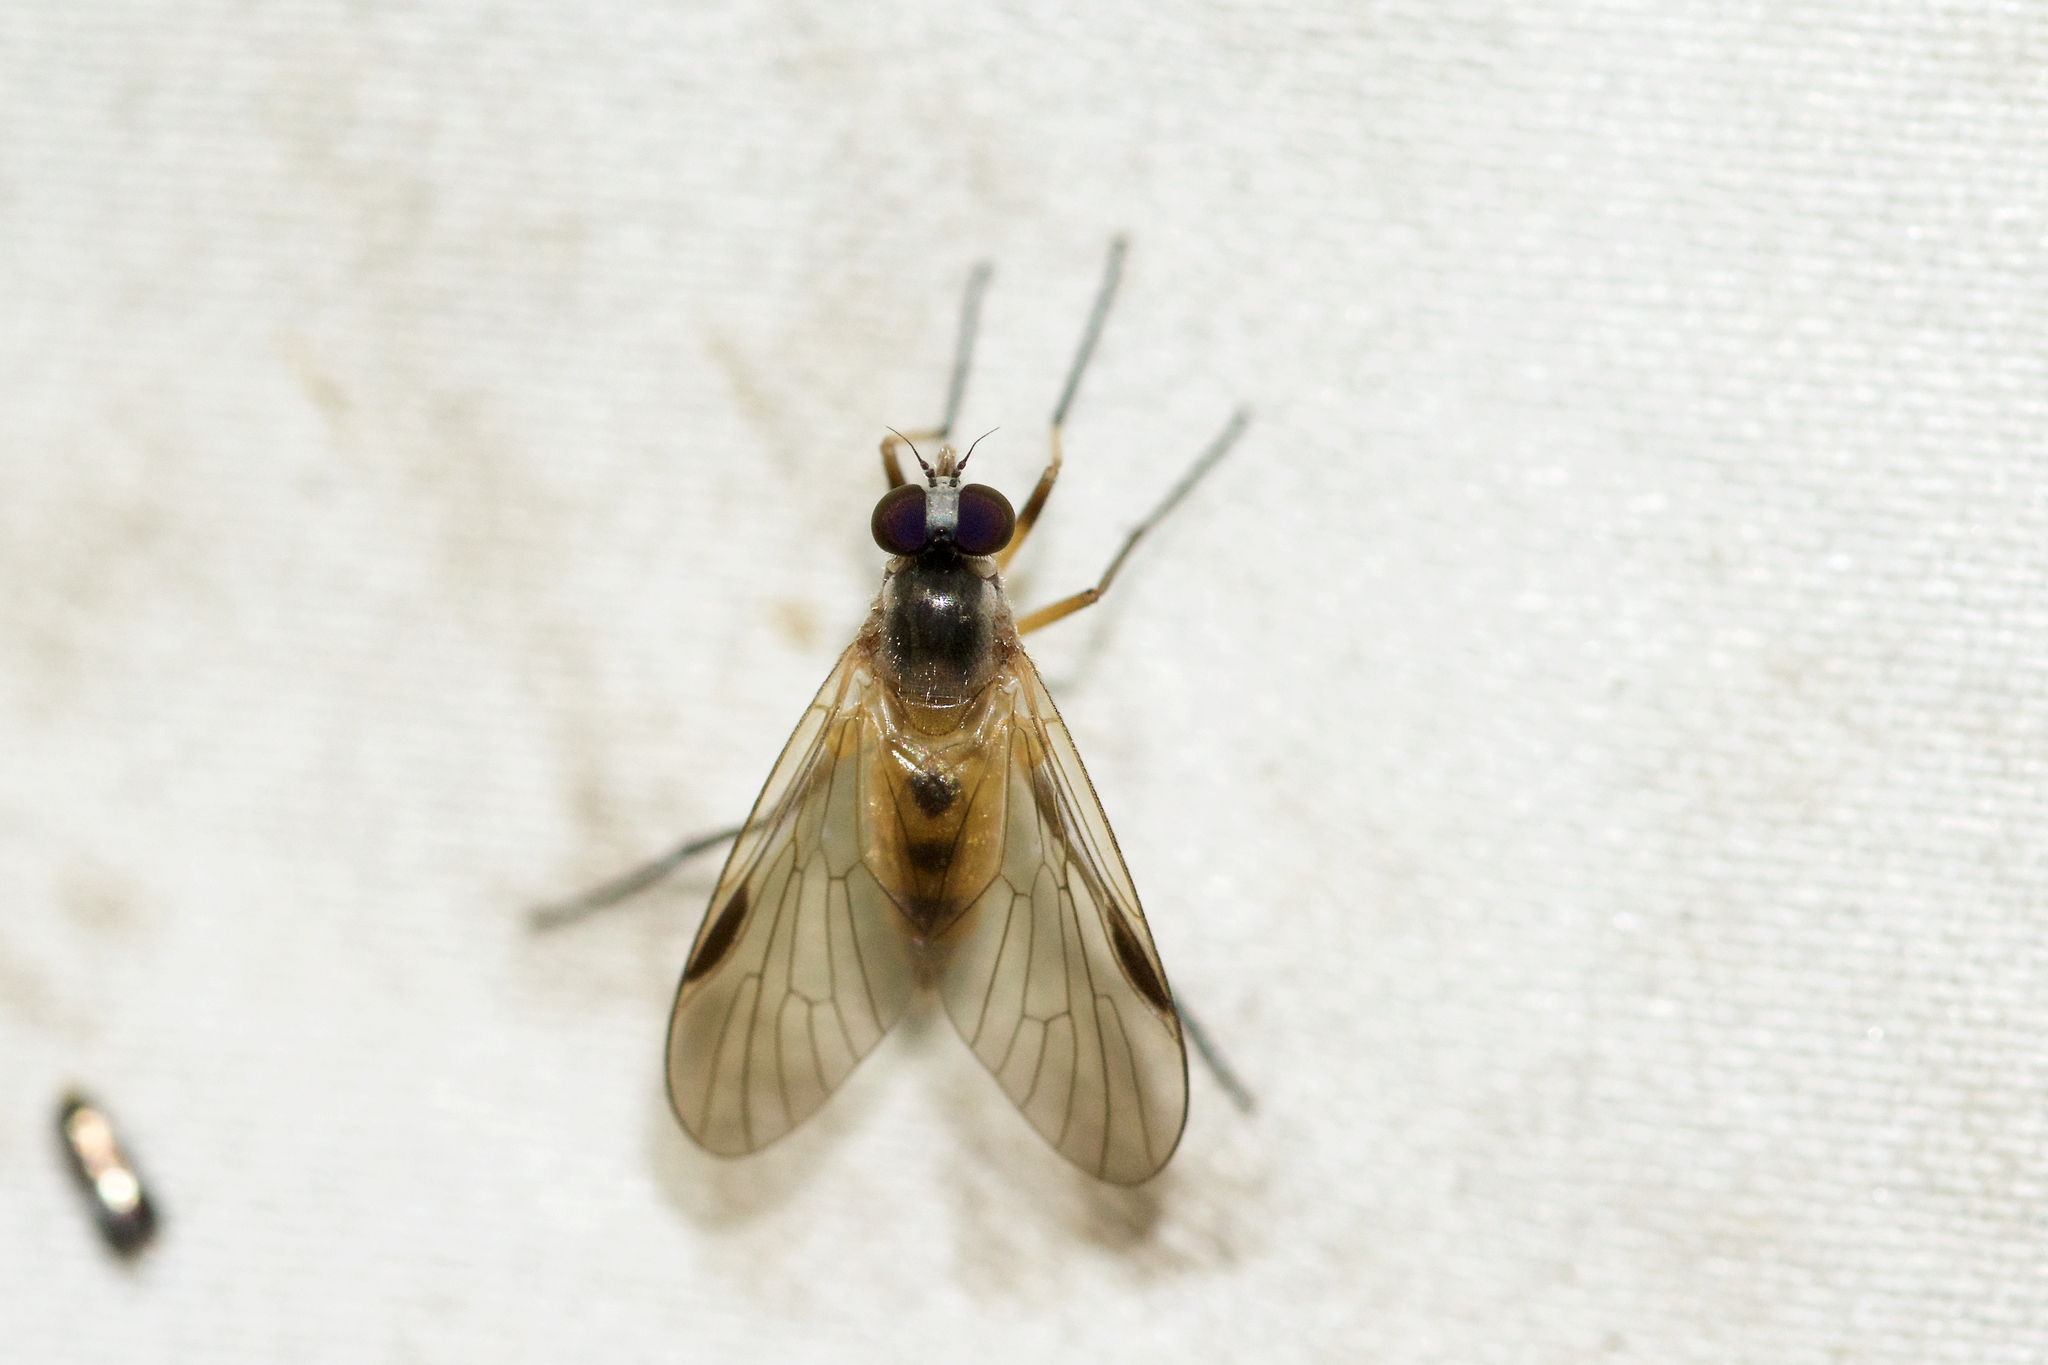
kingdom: Animalia
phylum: Arthropoda
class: Insecta
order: Diptera
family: Rhagionidae
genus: Rhagio
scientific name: Rhagio lineola
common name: Small fleck-winged snipefly
